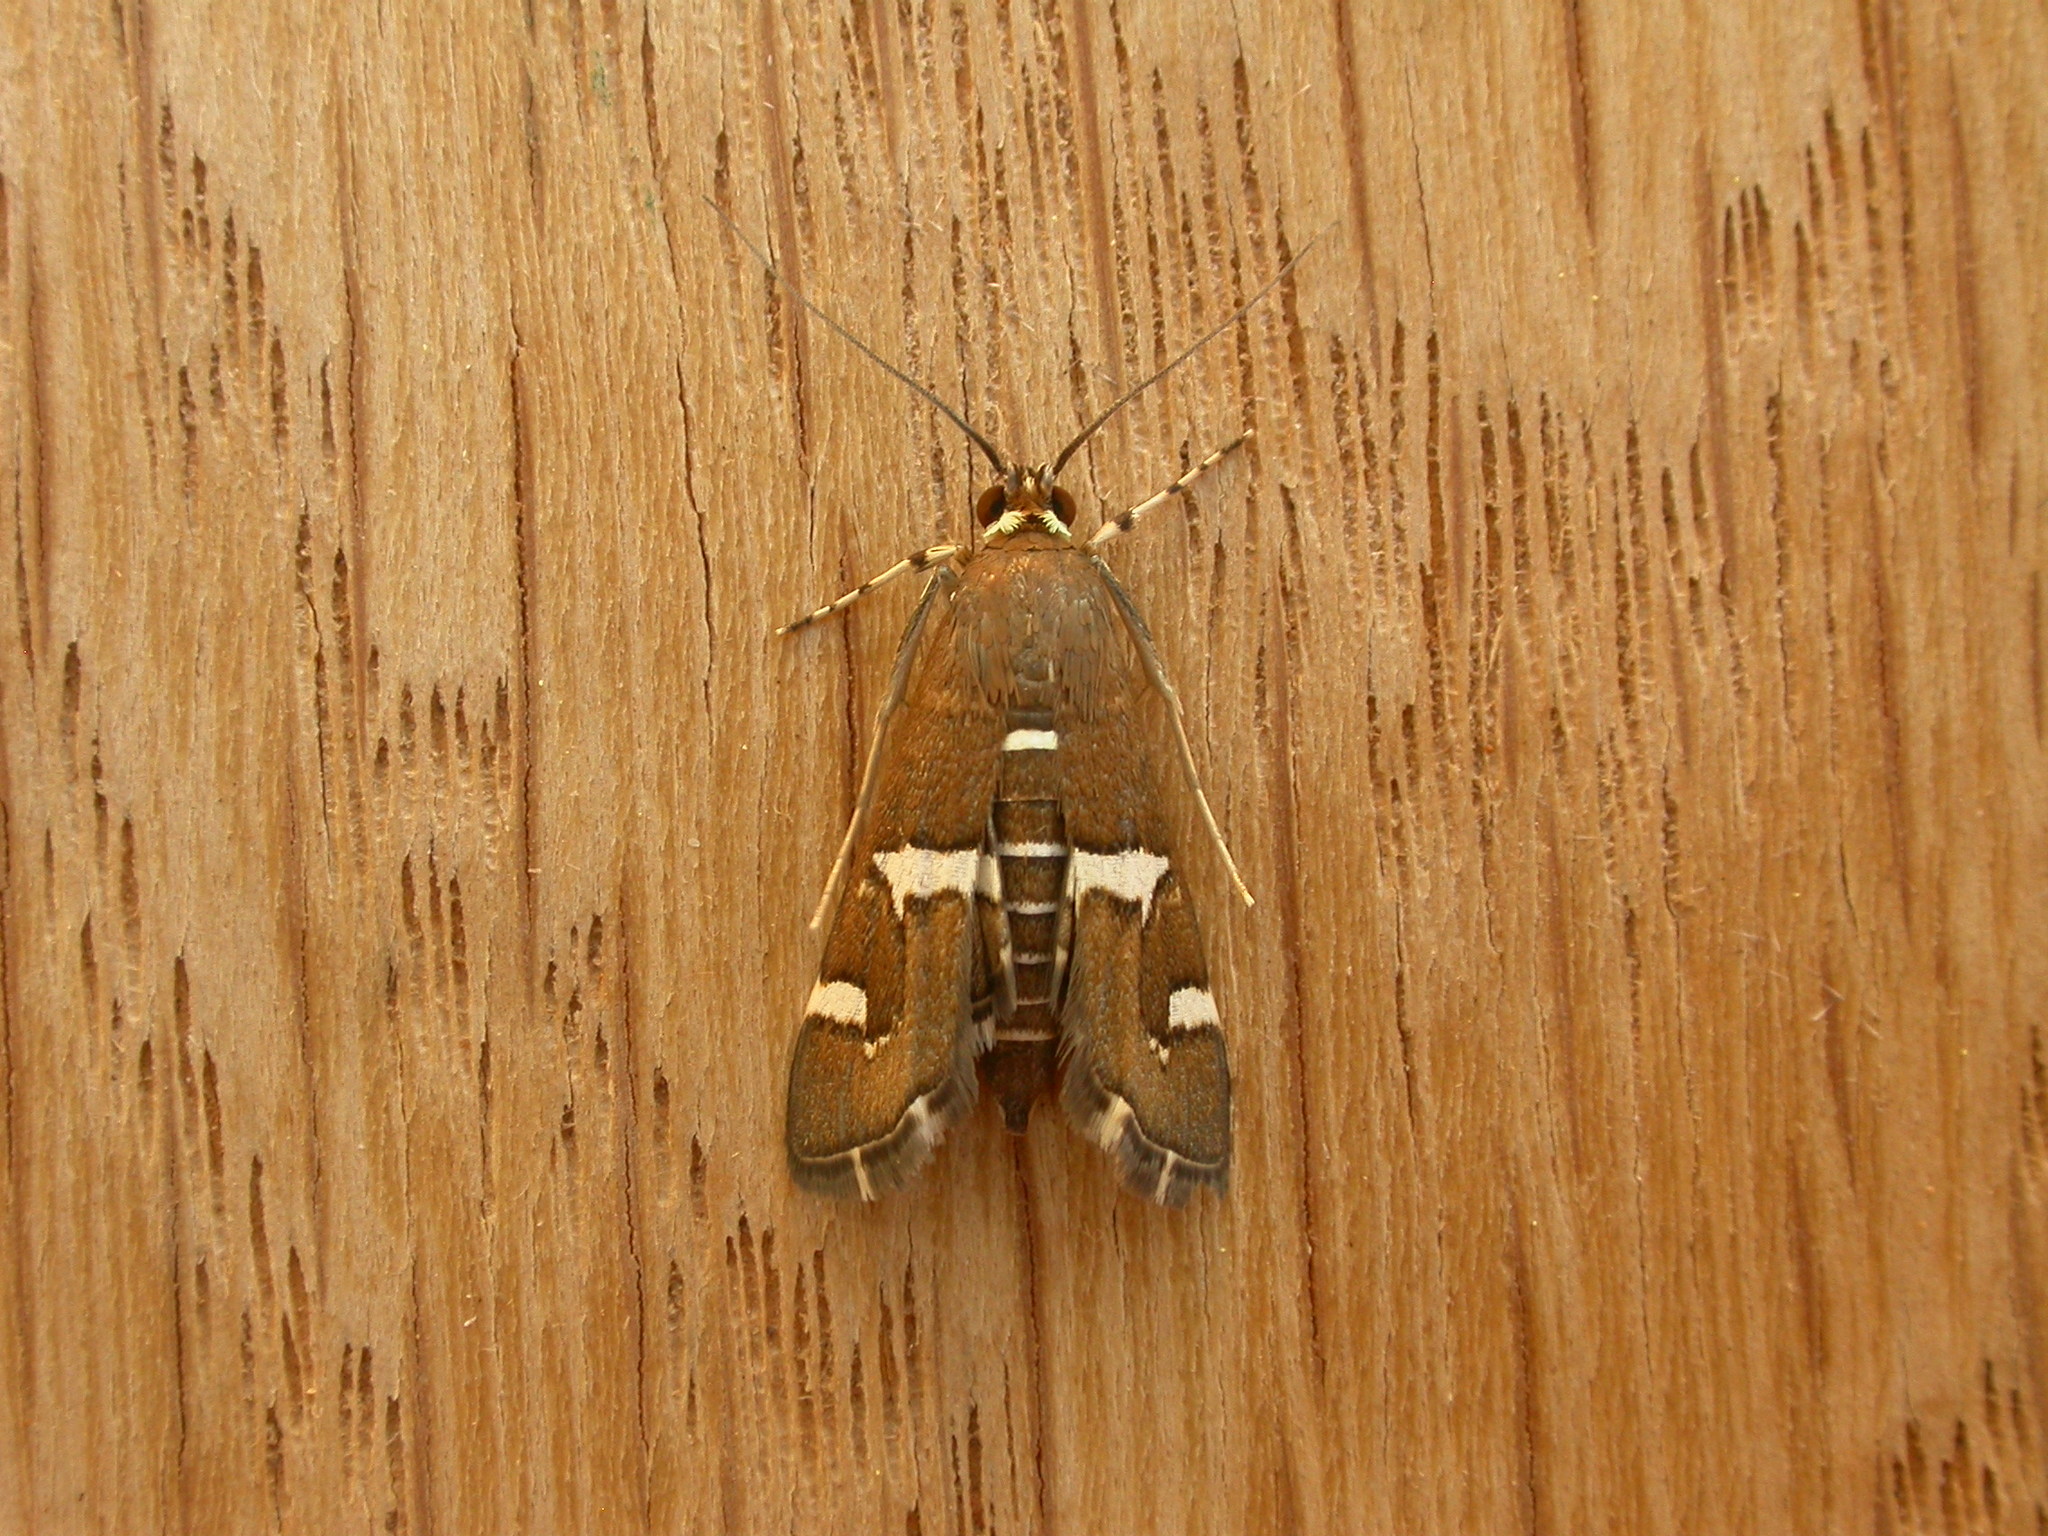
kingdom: Animalia
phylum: Arthropoda
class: Insecta
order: Lepidoptera
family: Crambidae
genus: Spoladea
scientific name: Spoladea recurvalis
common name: Beet webworm moth
